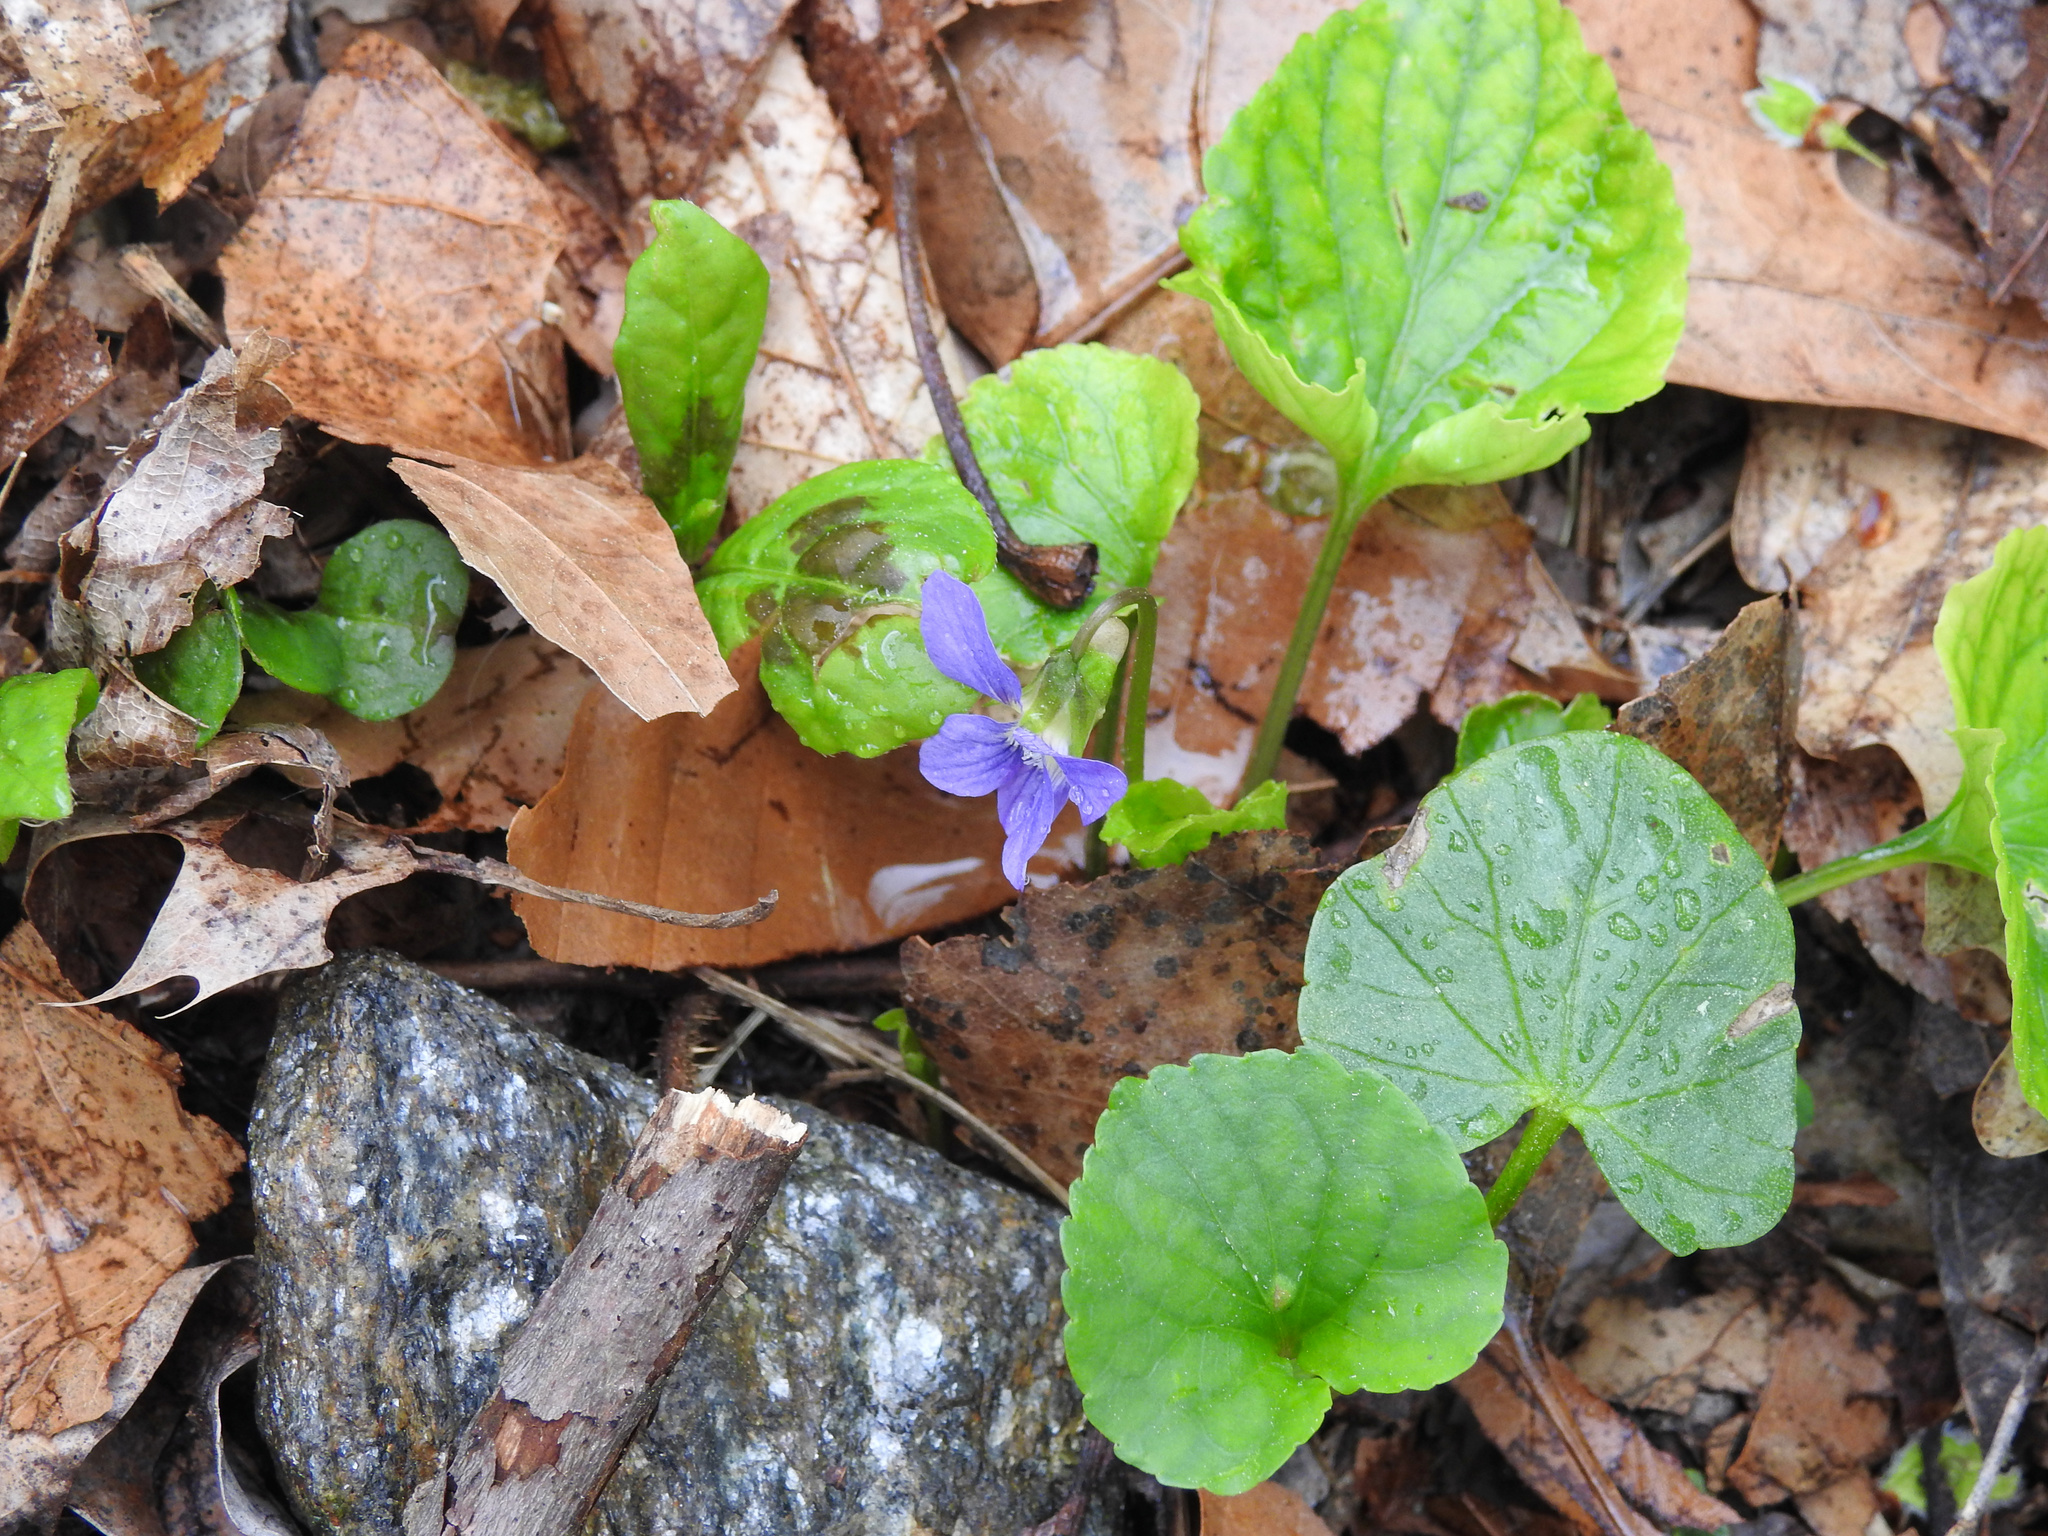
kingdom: Plantae
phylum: Tracheophyta
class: Magnoliopsida
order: Malpighiales
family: Violaceae
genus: Viola
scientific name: Viola sororia
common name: Dooryard violet
